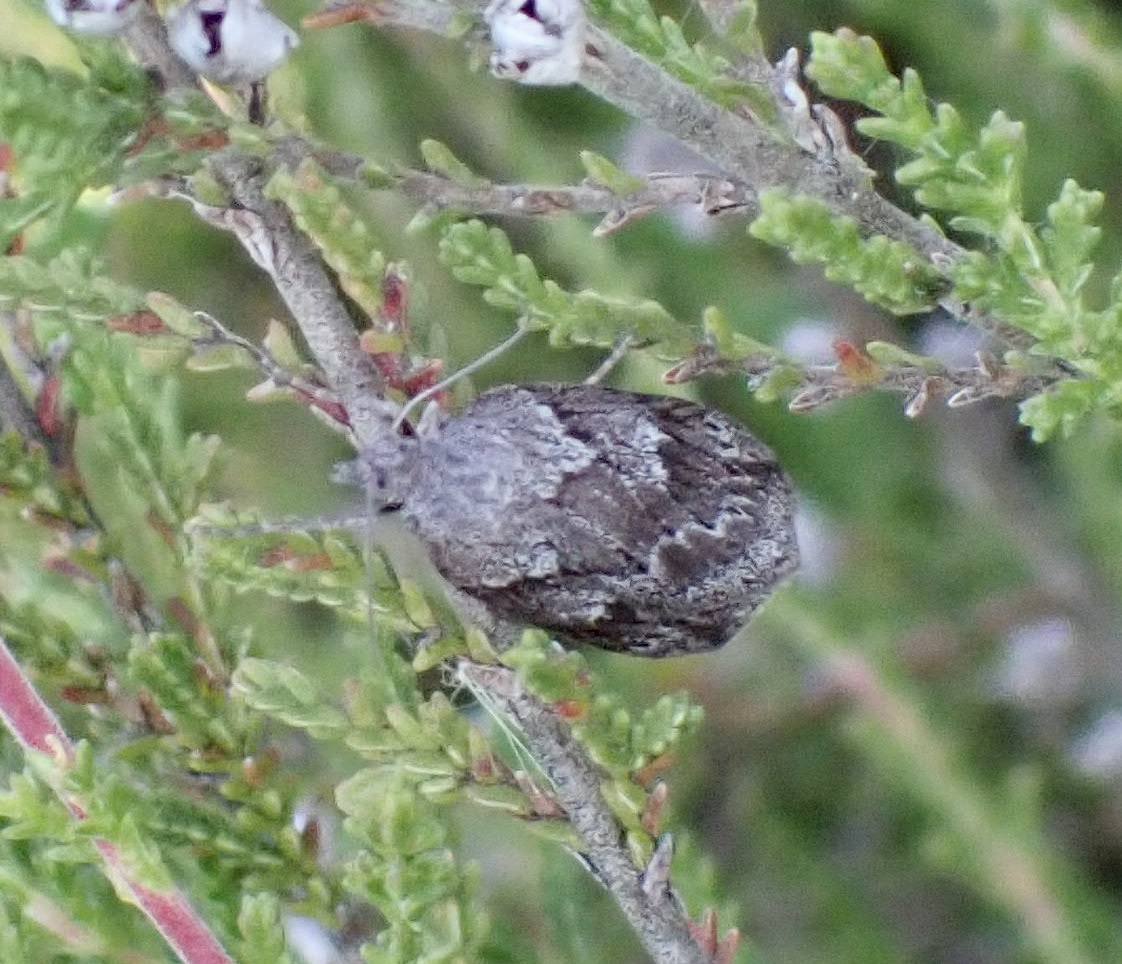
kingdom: Animalia
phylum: Arthropoda
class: Insecta
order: Lepidoptera
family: Geometridae
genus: Pachycnemia
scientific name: Pachycnemia hippocastanaria
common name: Horse chestnut
